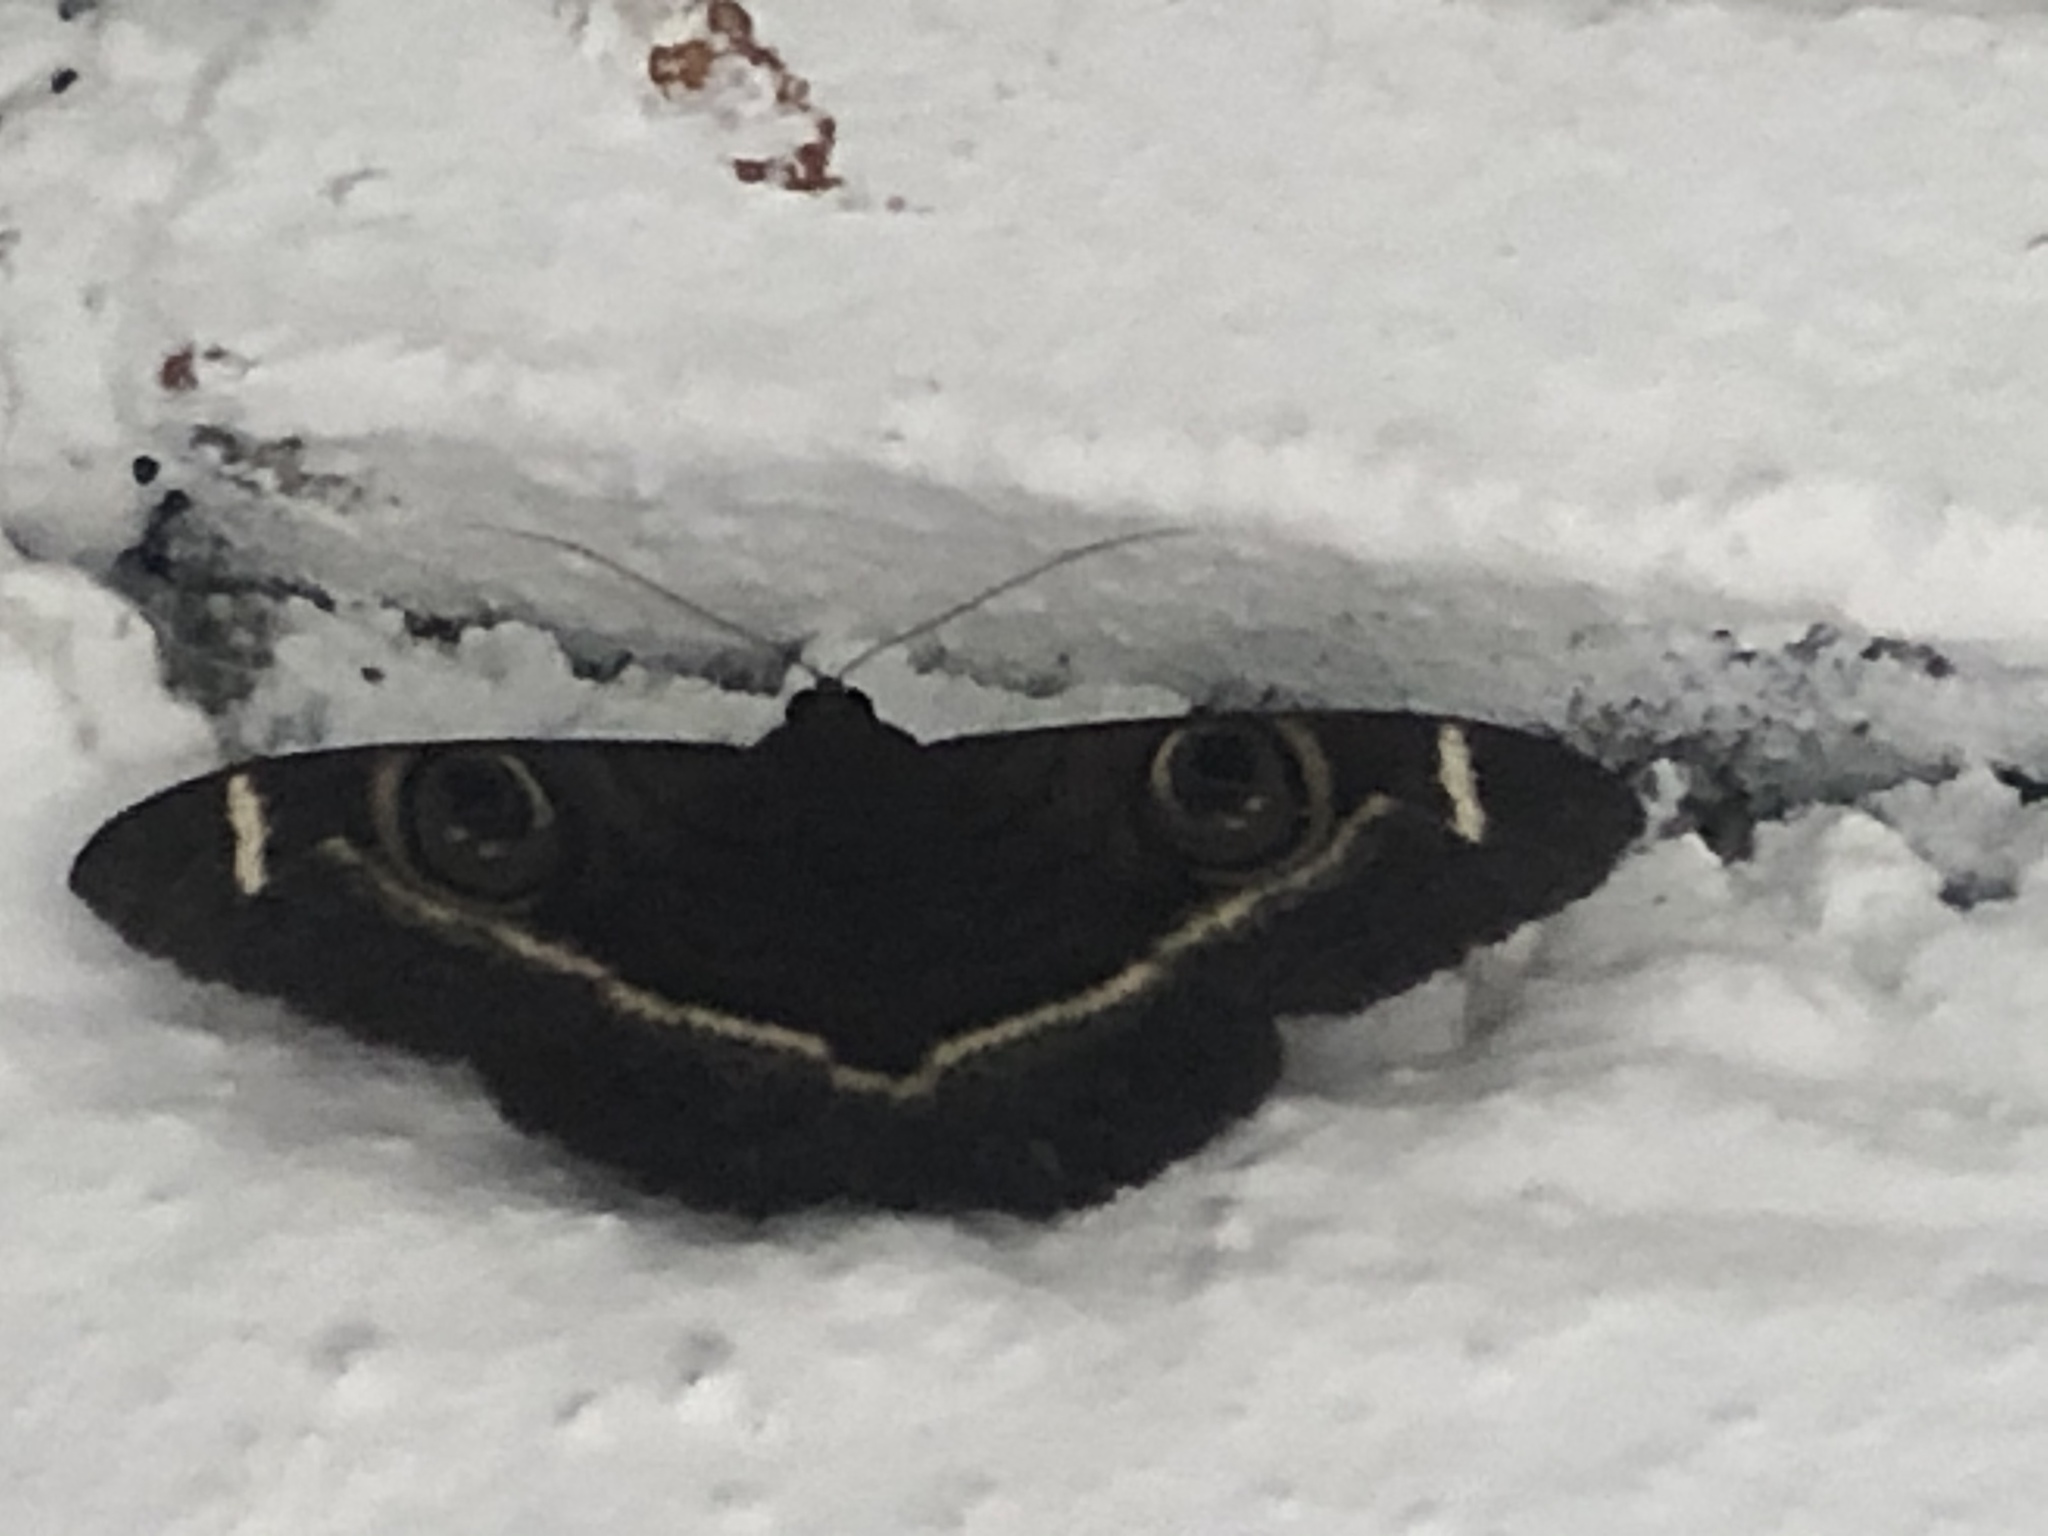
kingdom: Animalia
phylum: Arthropoda
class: Insecta
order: Lepidoptera
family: Erebidae
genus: Cyligramma
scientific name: Cyligramma latona
